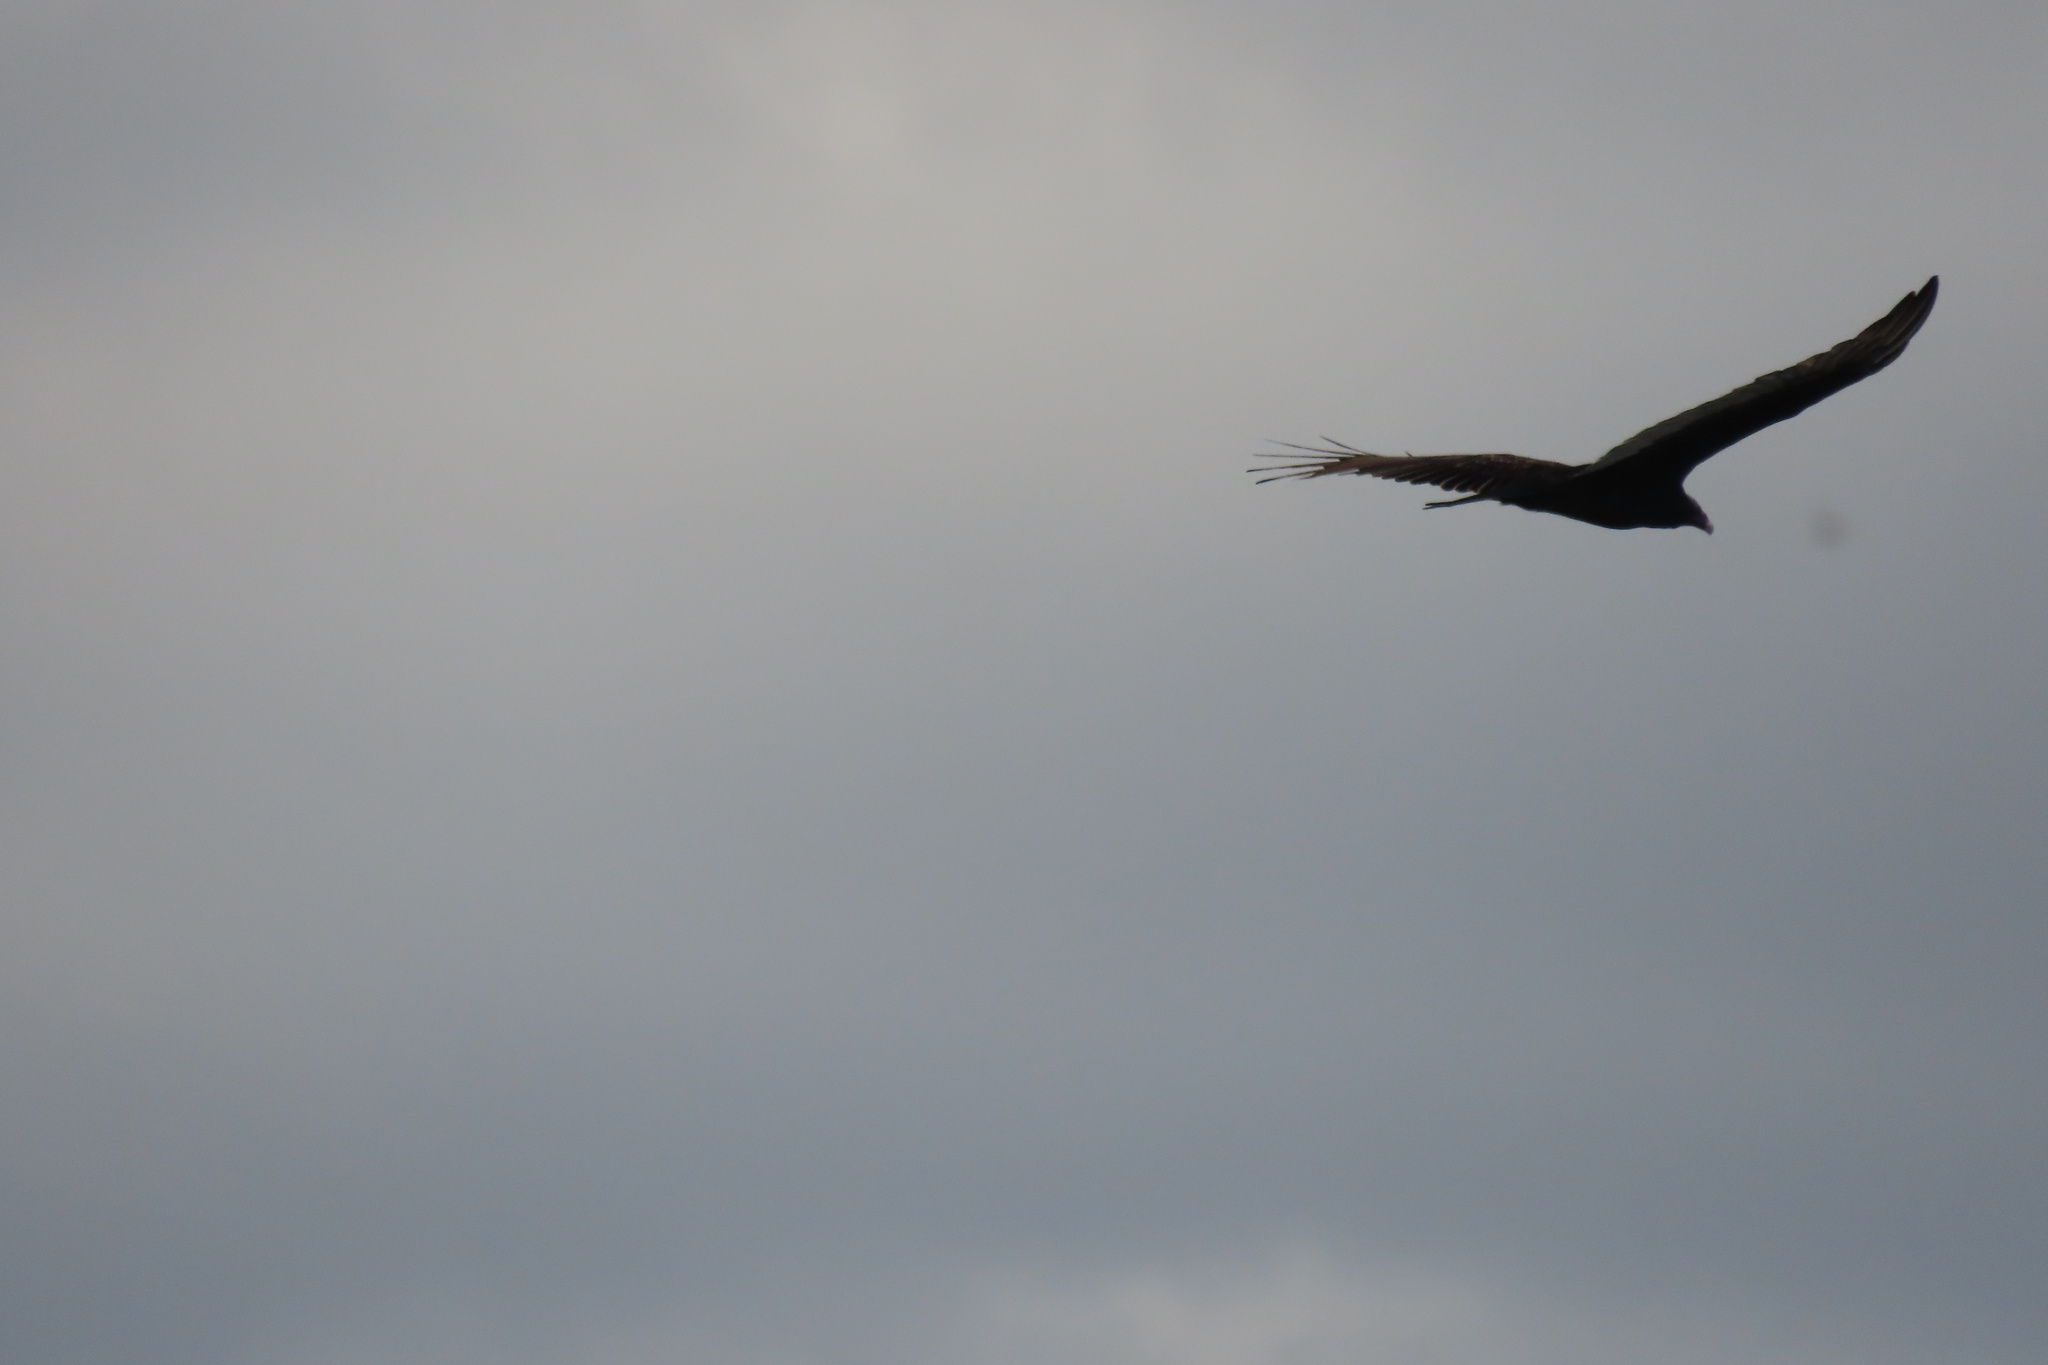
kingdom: Animalia
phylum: Chordata
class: Aves
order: Accipitriformes
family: Cathartidae
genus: Cathartes
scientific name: Cathartes aura
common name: Turkey vulture
